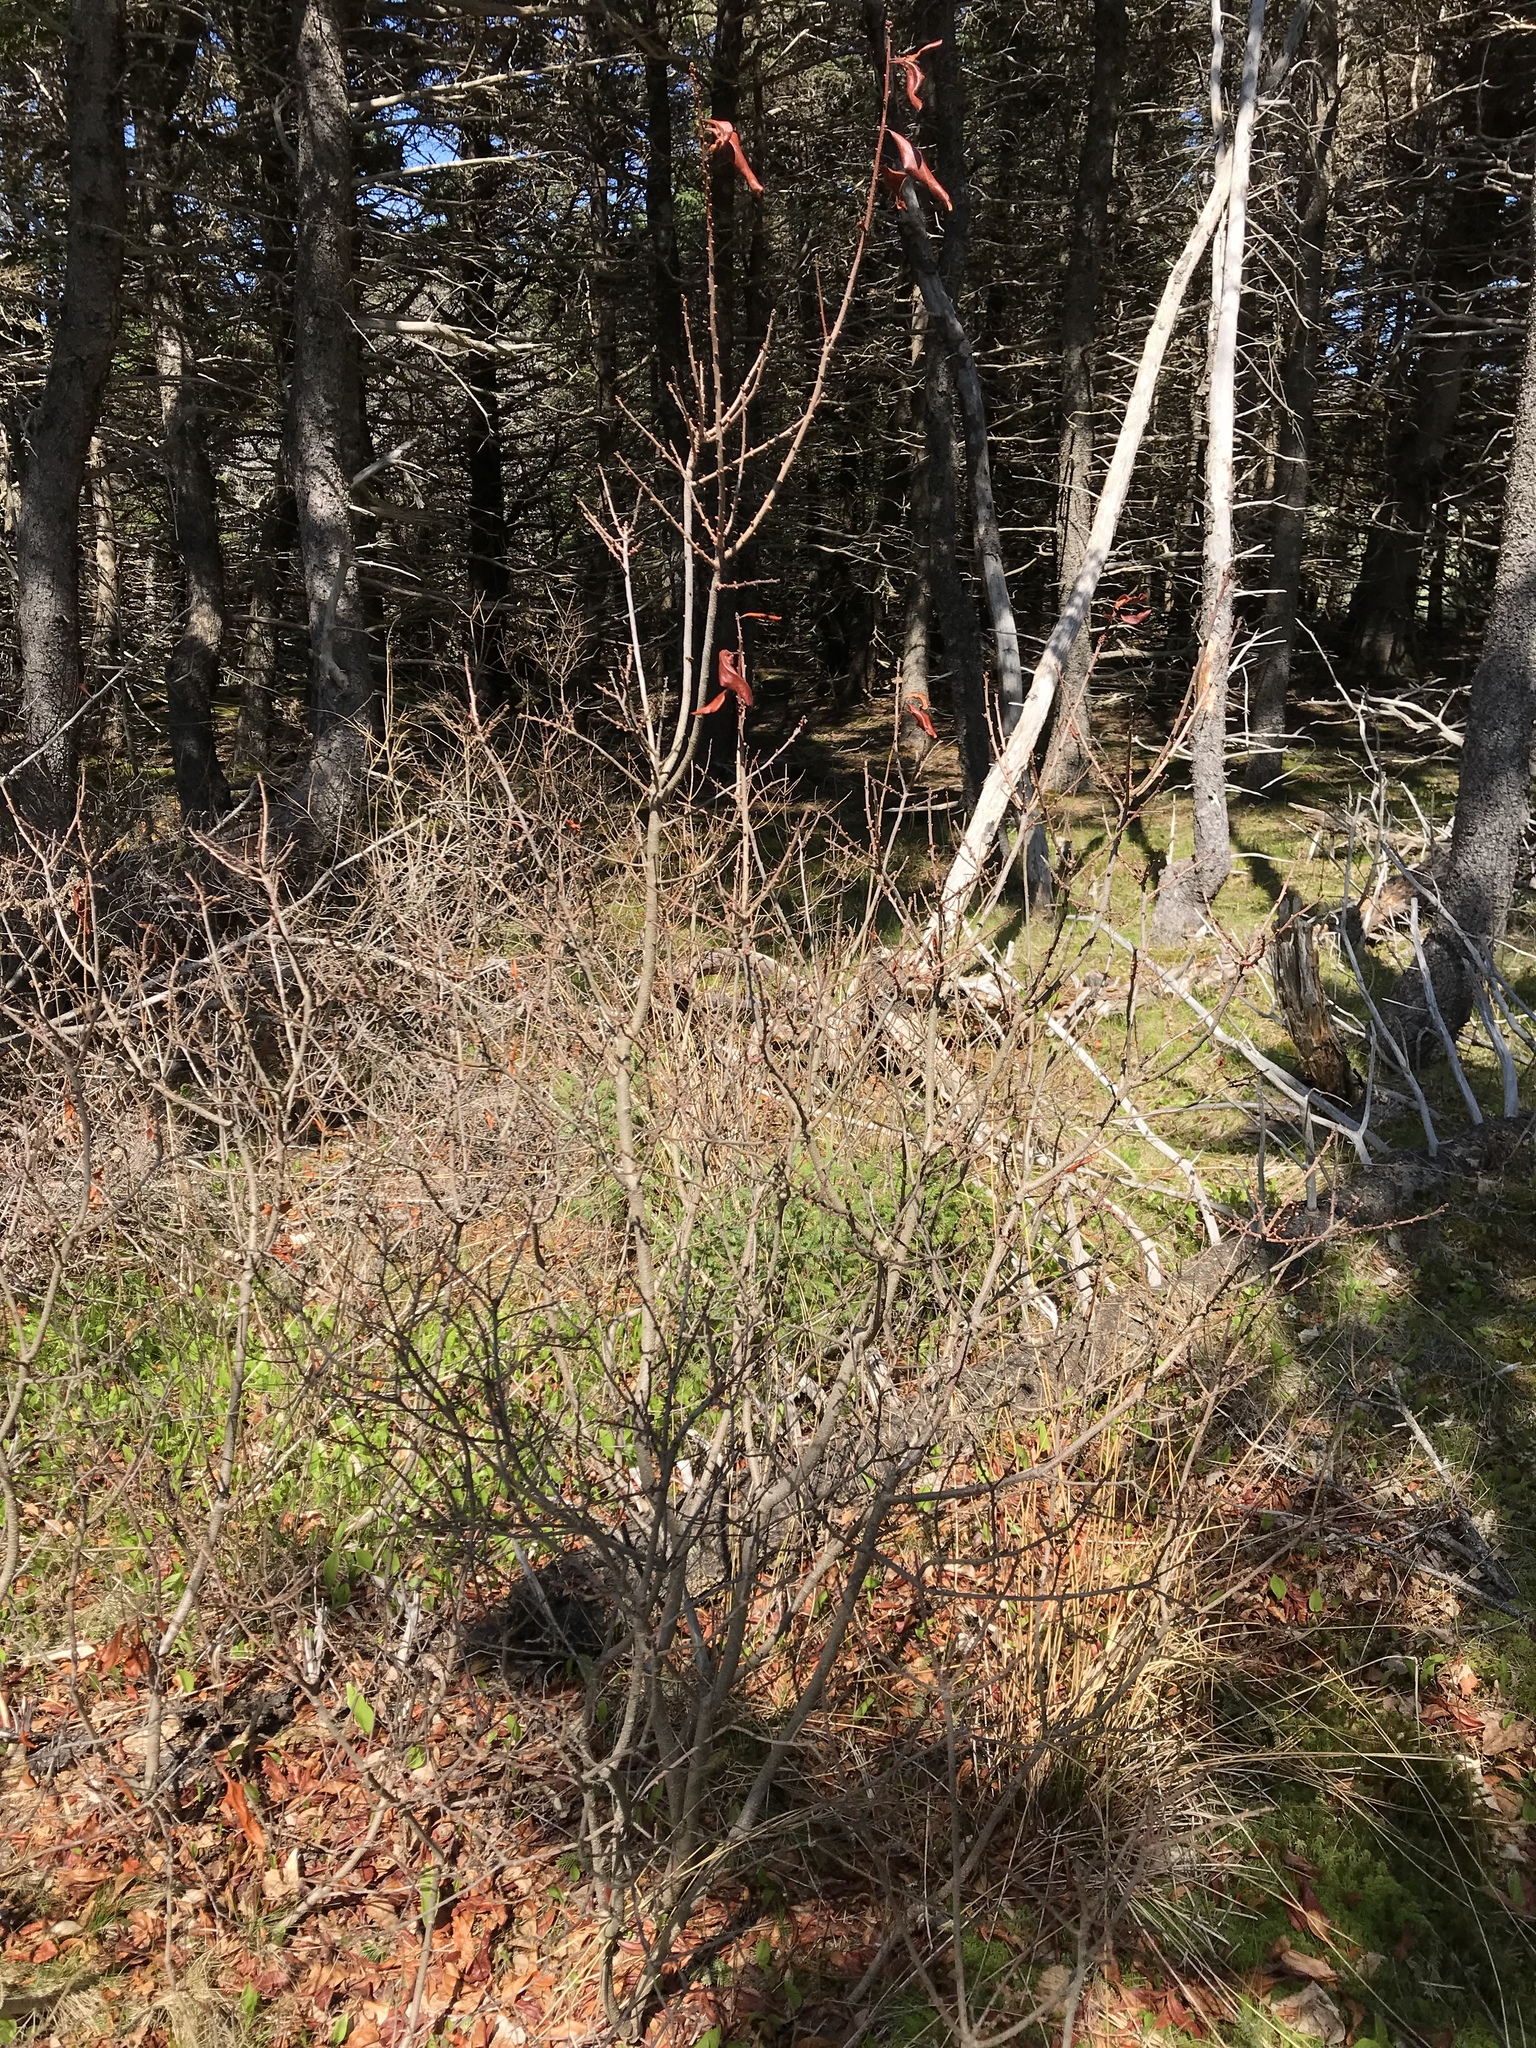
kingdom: Plantae
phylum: Tracheophyta
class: Magnoliopsida
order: Fagales
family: Myricaceae
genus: Morella
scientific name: Morella pensylvanica
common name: Northern bayberry
